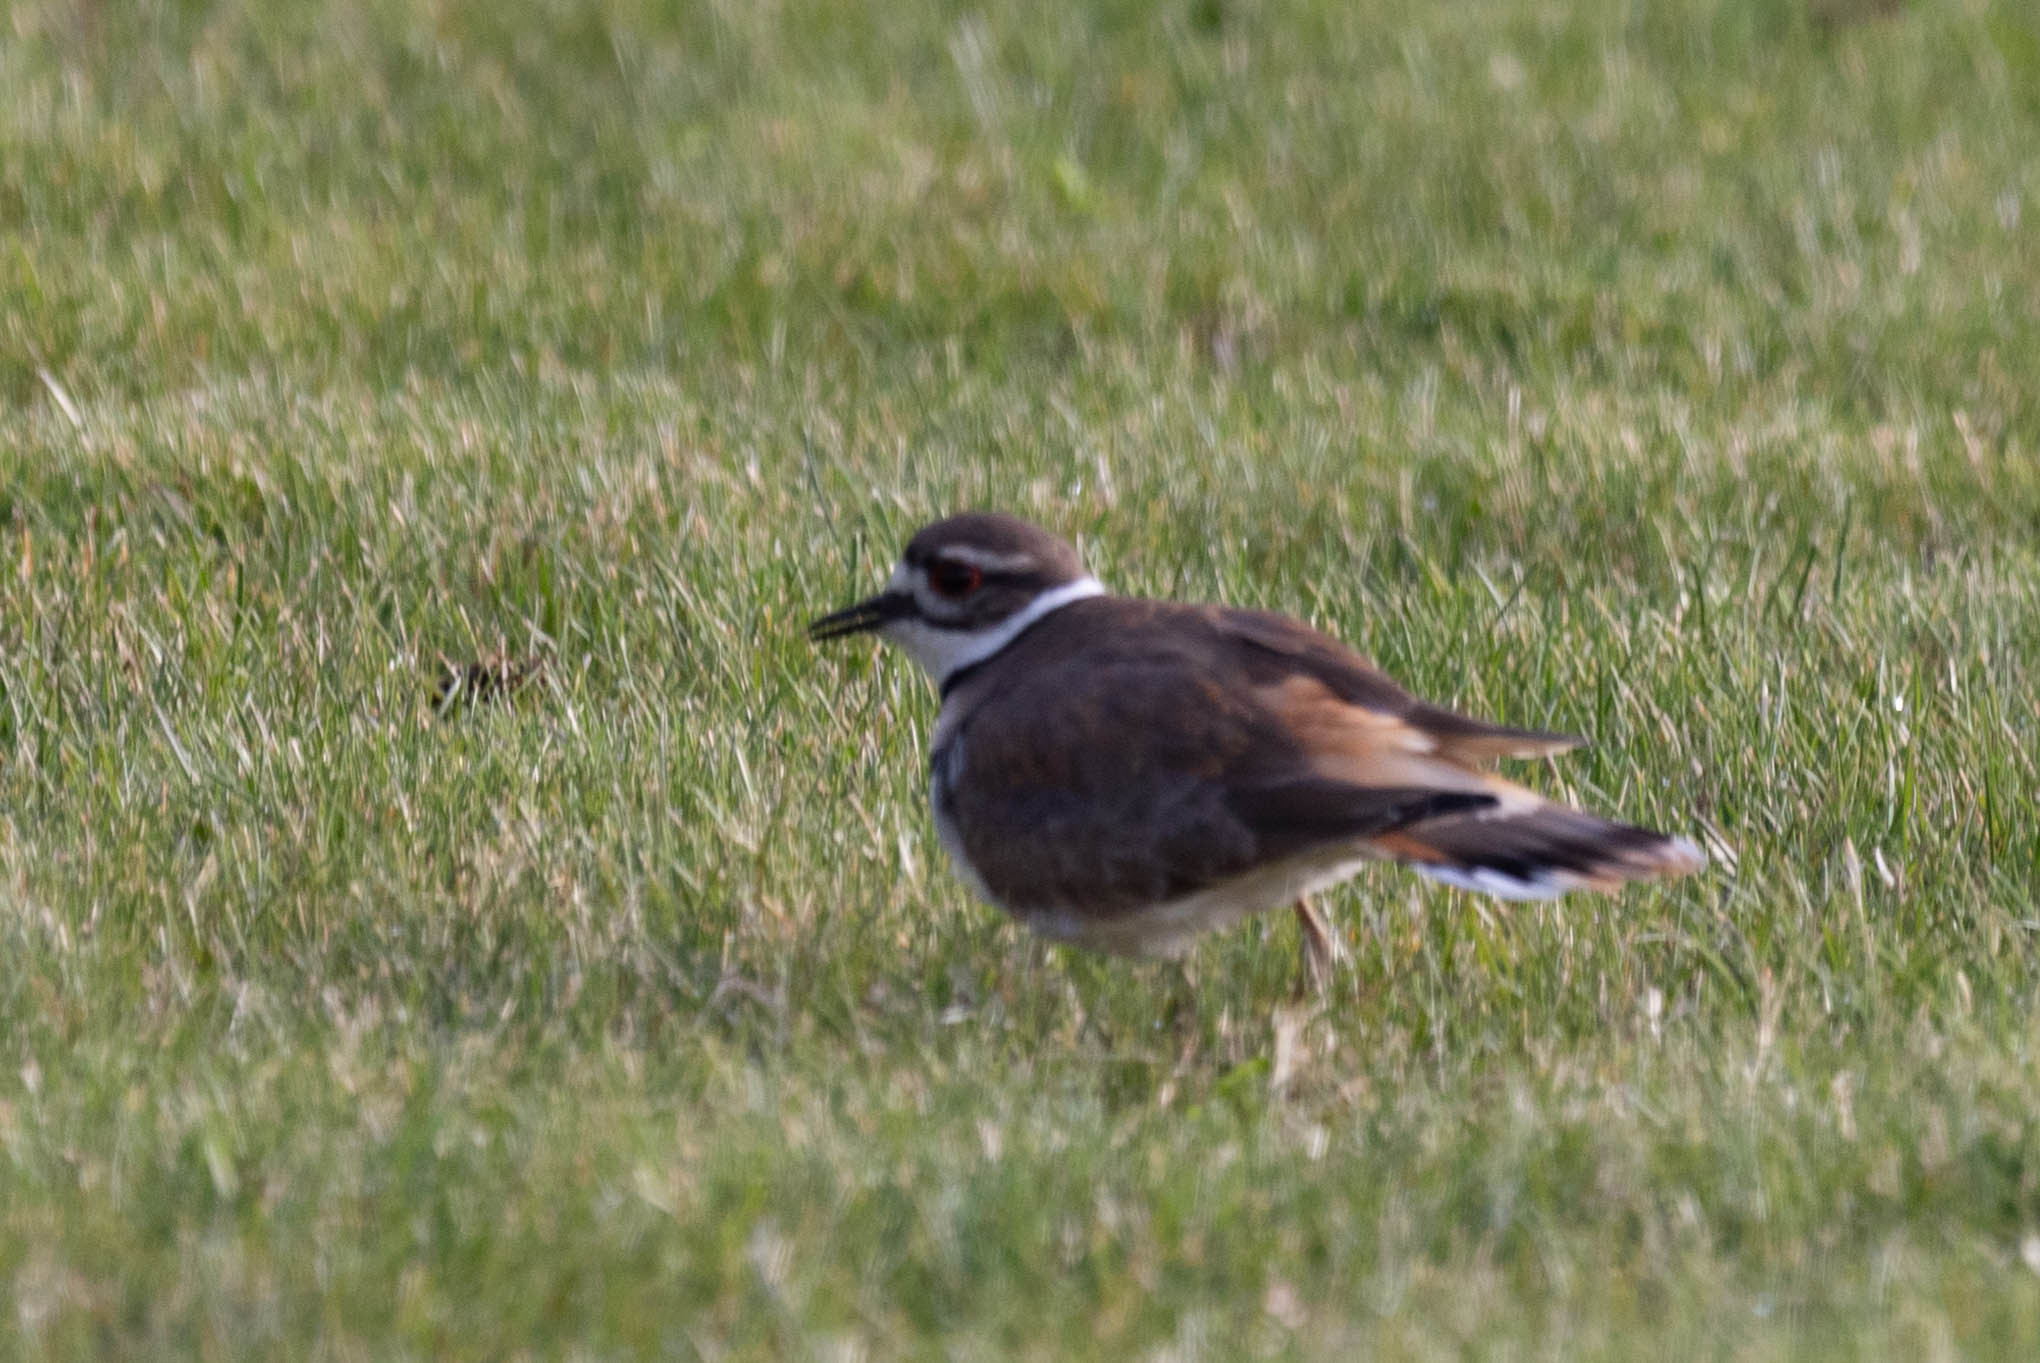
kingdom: Animalia
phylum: Chordata
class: Aves
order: Charadriiformes
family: Charadriidae
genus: Charadrius
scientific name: Charadrius vociferus
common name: Killdeer
